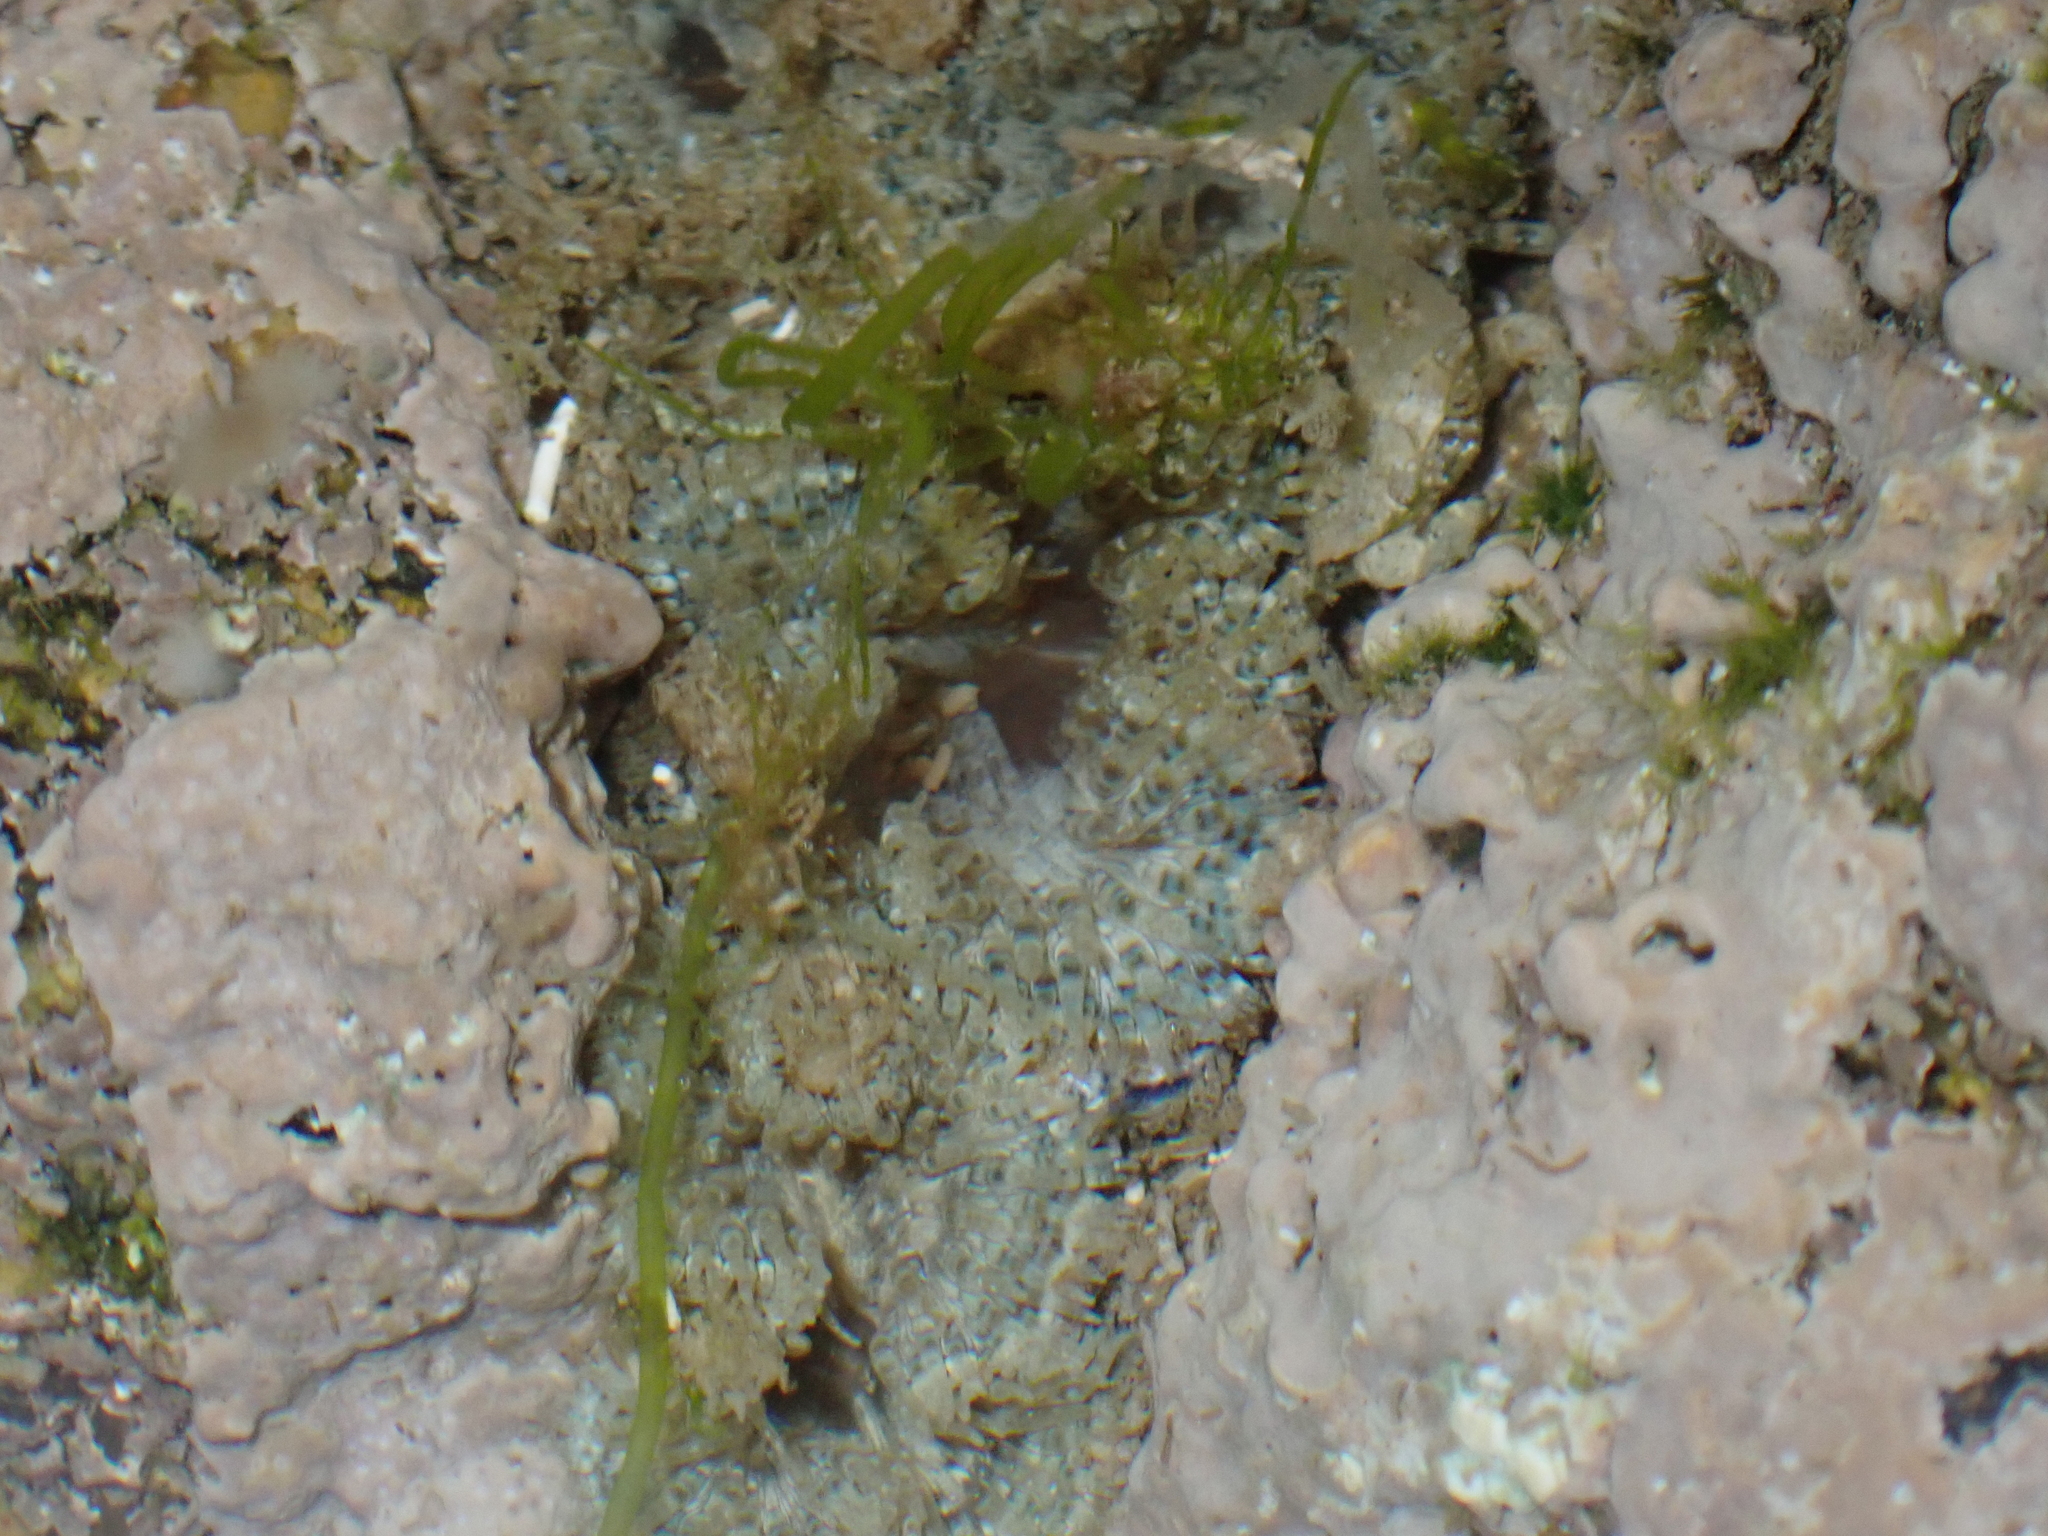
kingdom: Animalia
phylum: Cnidaria
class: Anthozoa
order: Actiniaria
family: Sagartiidae
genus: Cereus
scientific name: Cereus pedunculatus
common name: Daisy anemone
